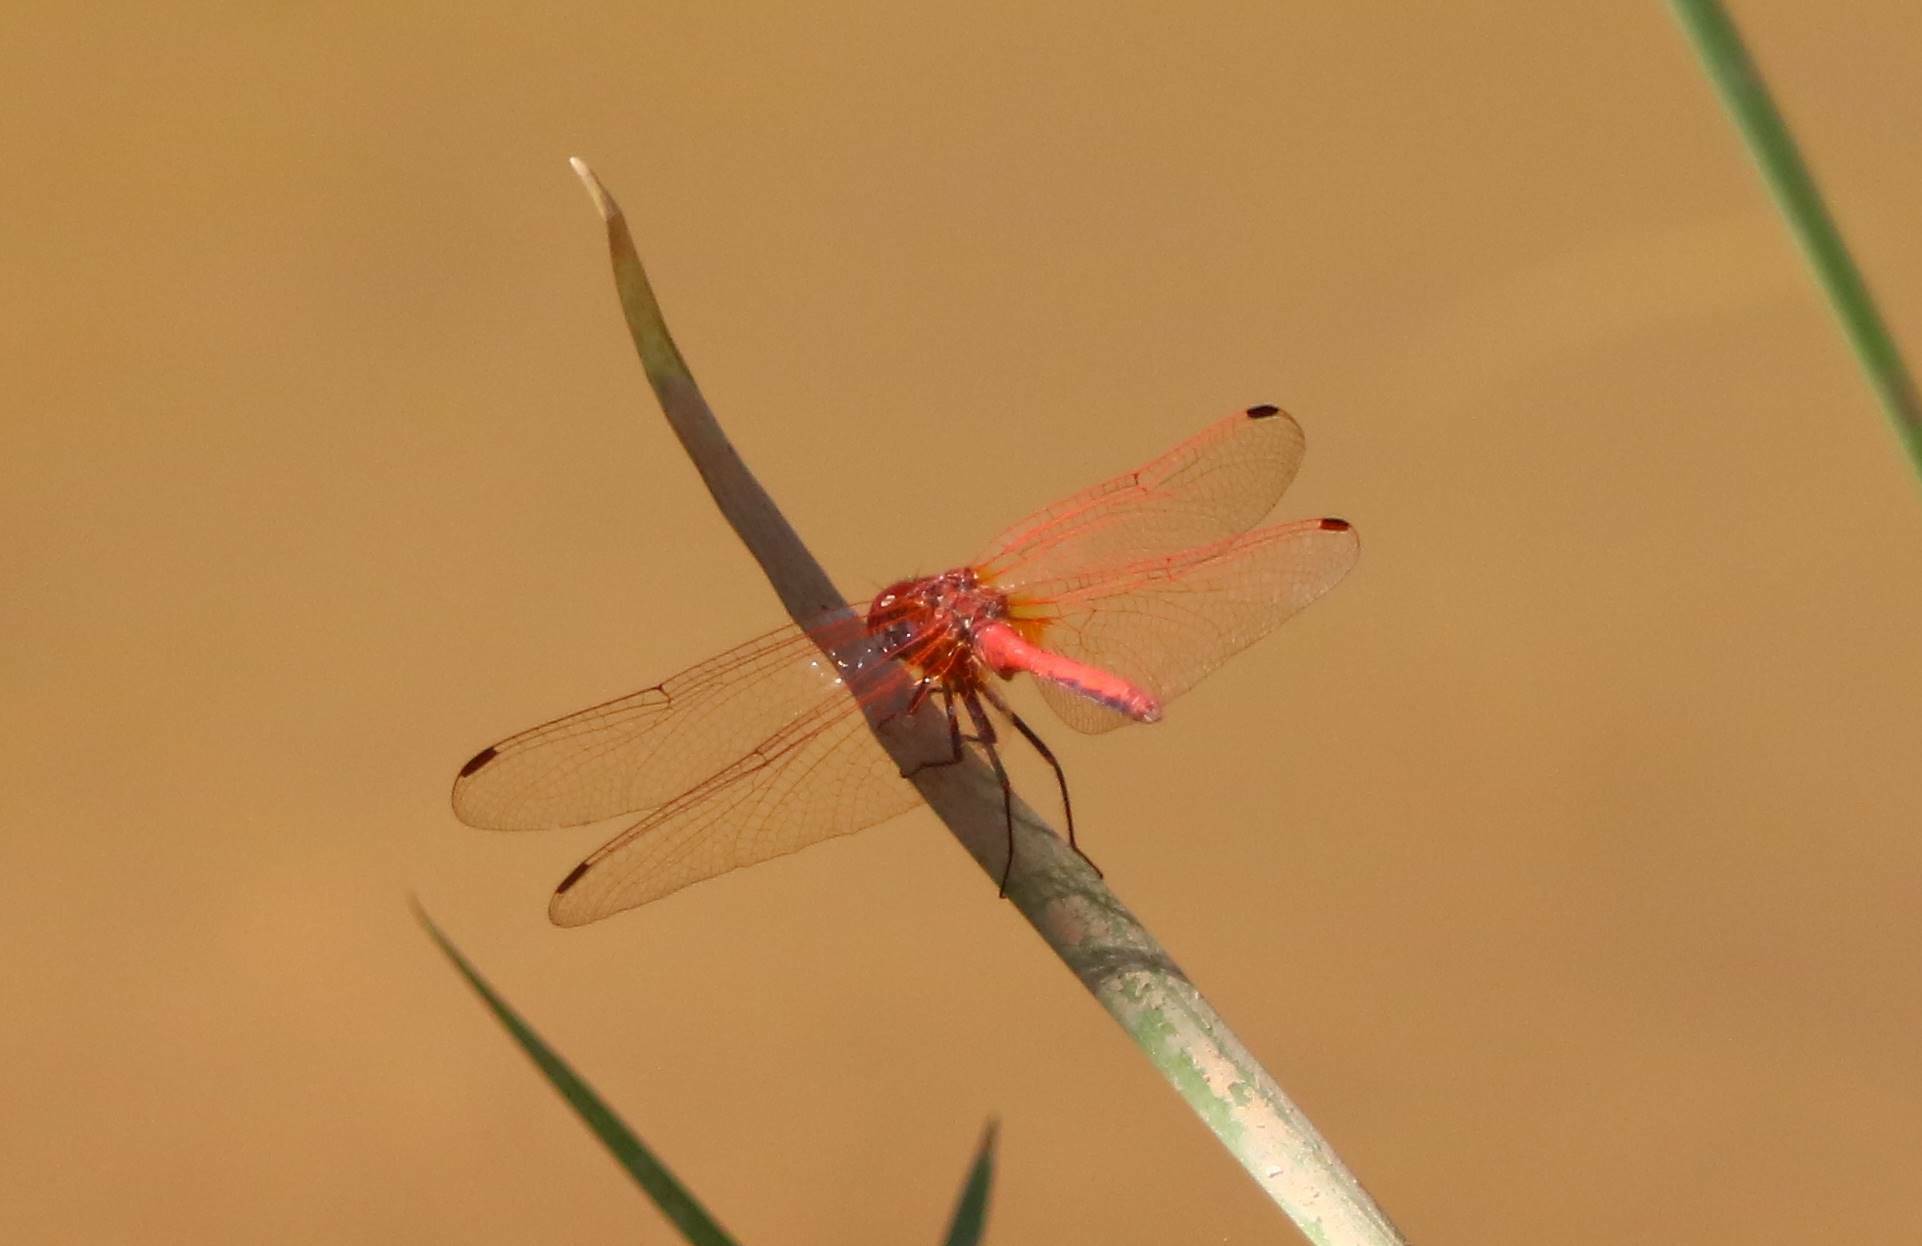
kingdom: Animalia
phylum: Arthropoda
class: Insecta
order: Odonata
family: Libellulidae
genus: Trithemis
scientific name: Trithemis annulata
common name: Violet dropwing
